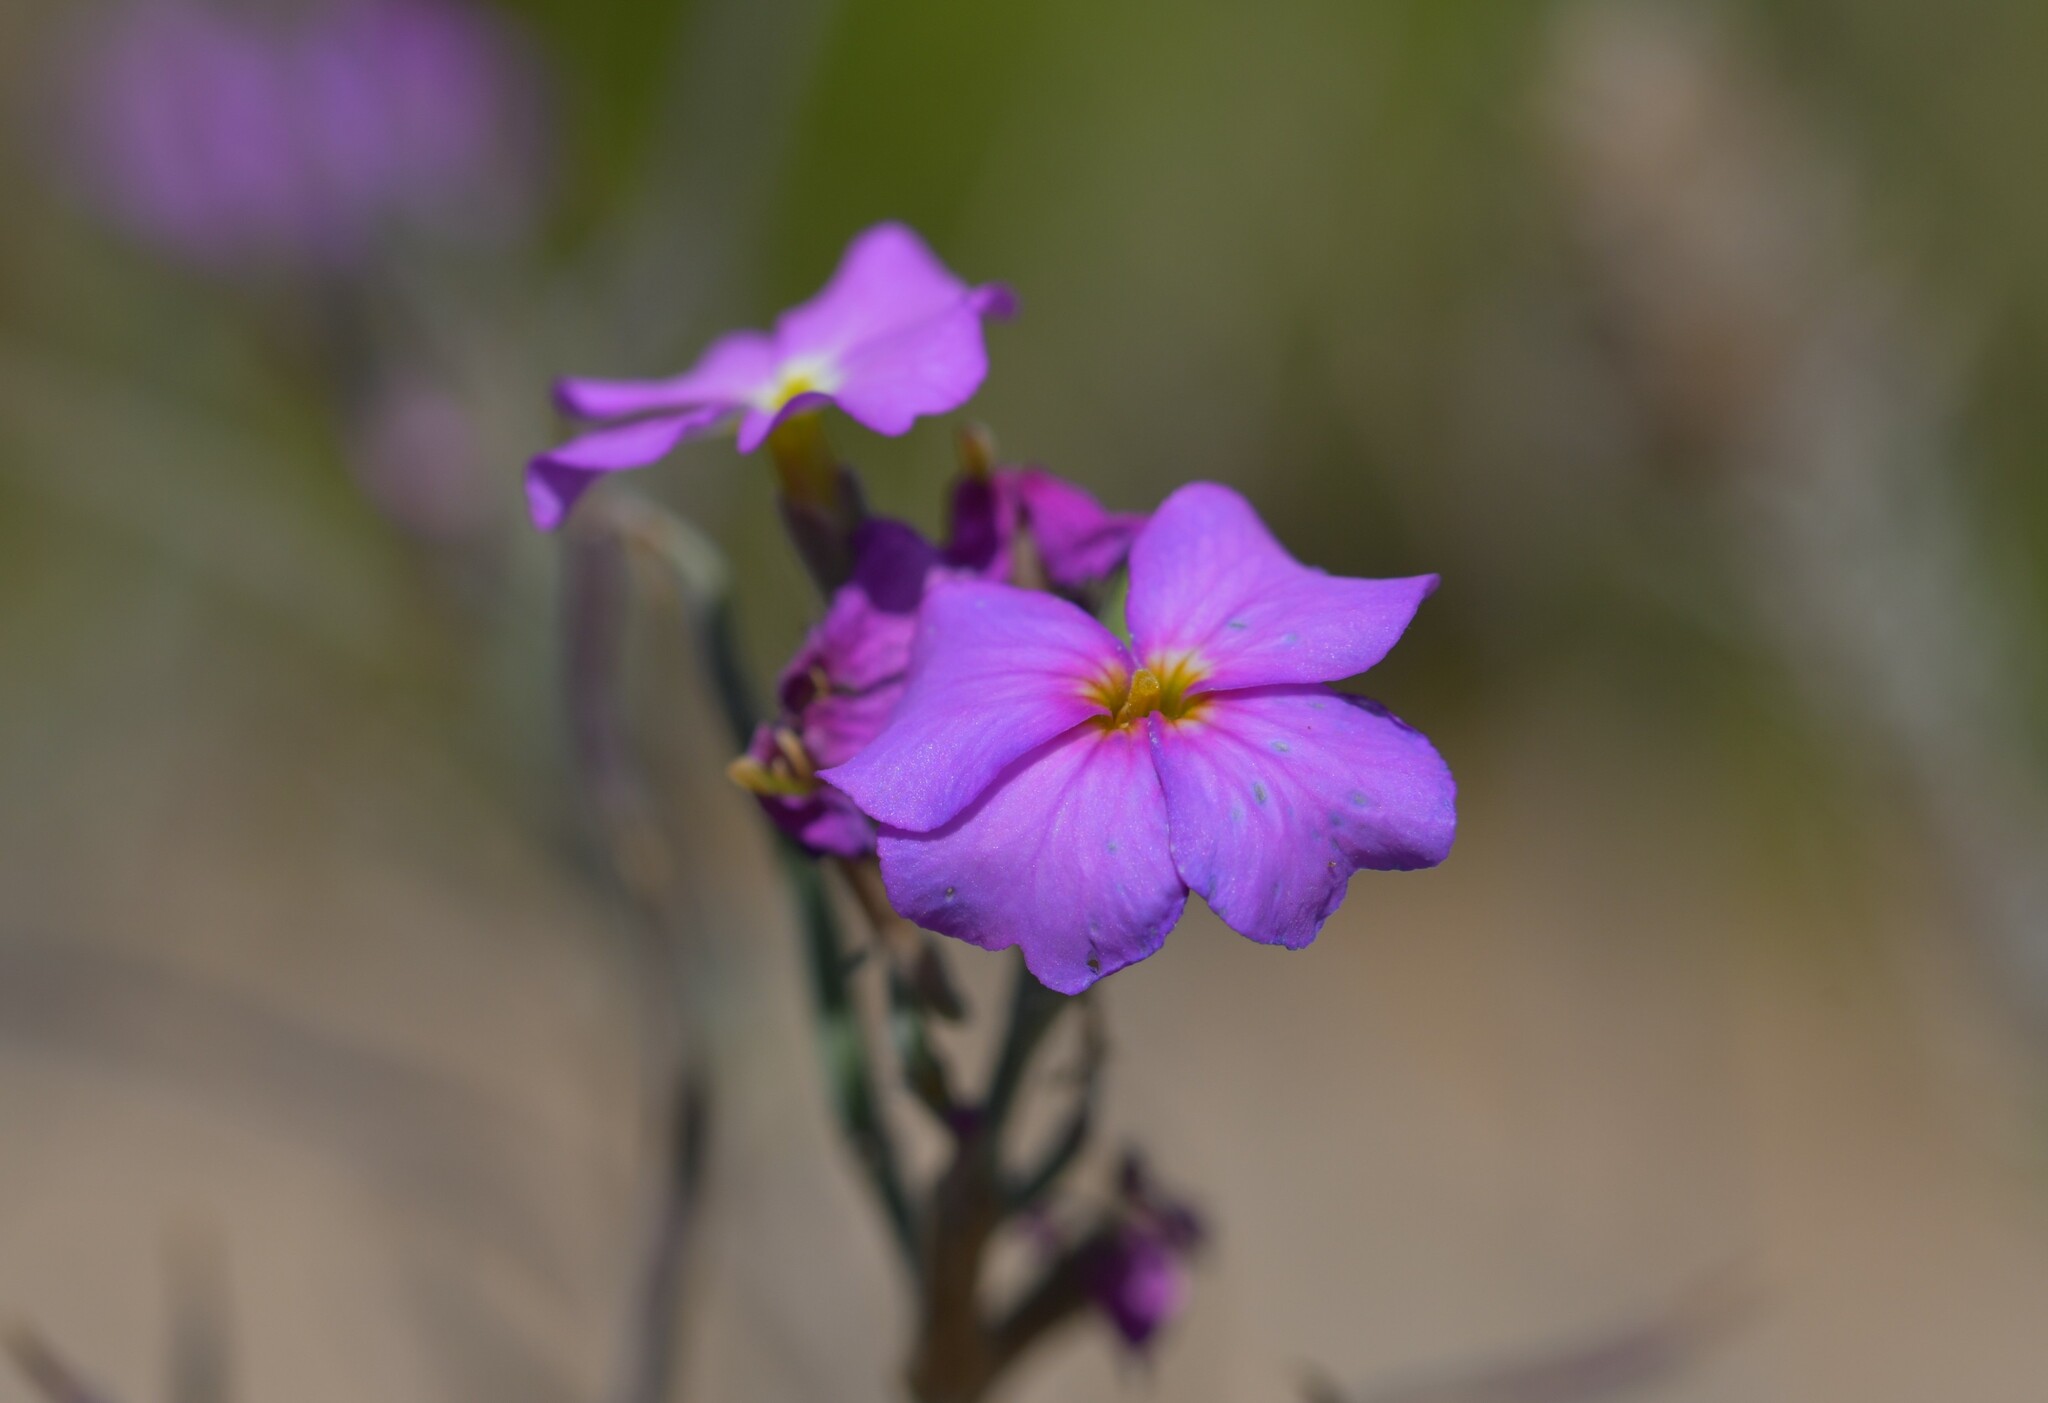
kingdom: Plantae
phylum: Tracheophyta
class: Magnoliopsida
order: Brassicales
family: Brassicaceae
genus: Marcuskochia
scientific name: Marcuskochia littorea
